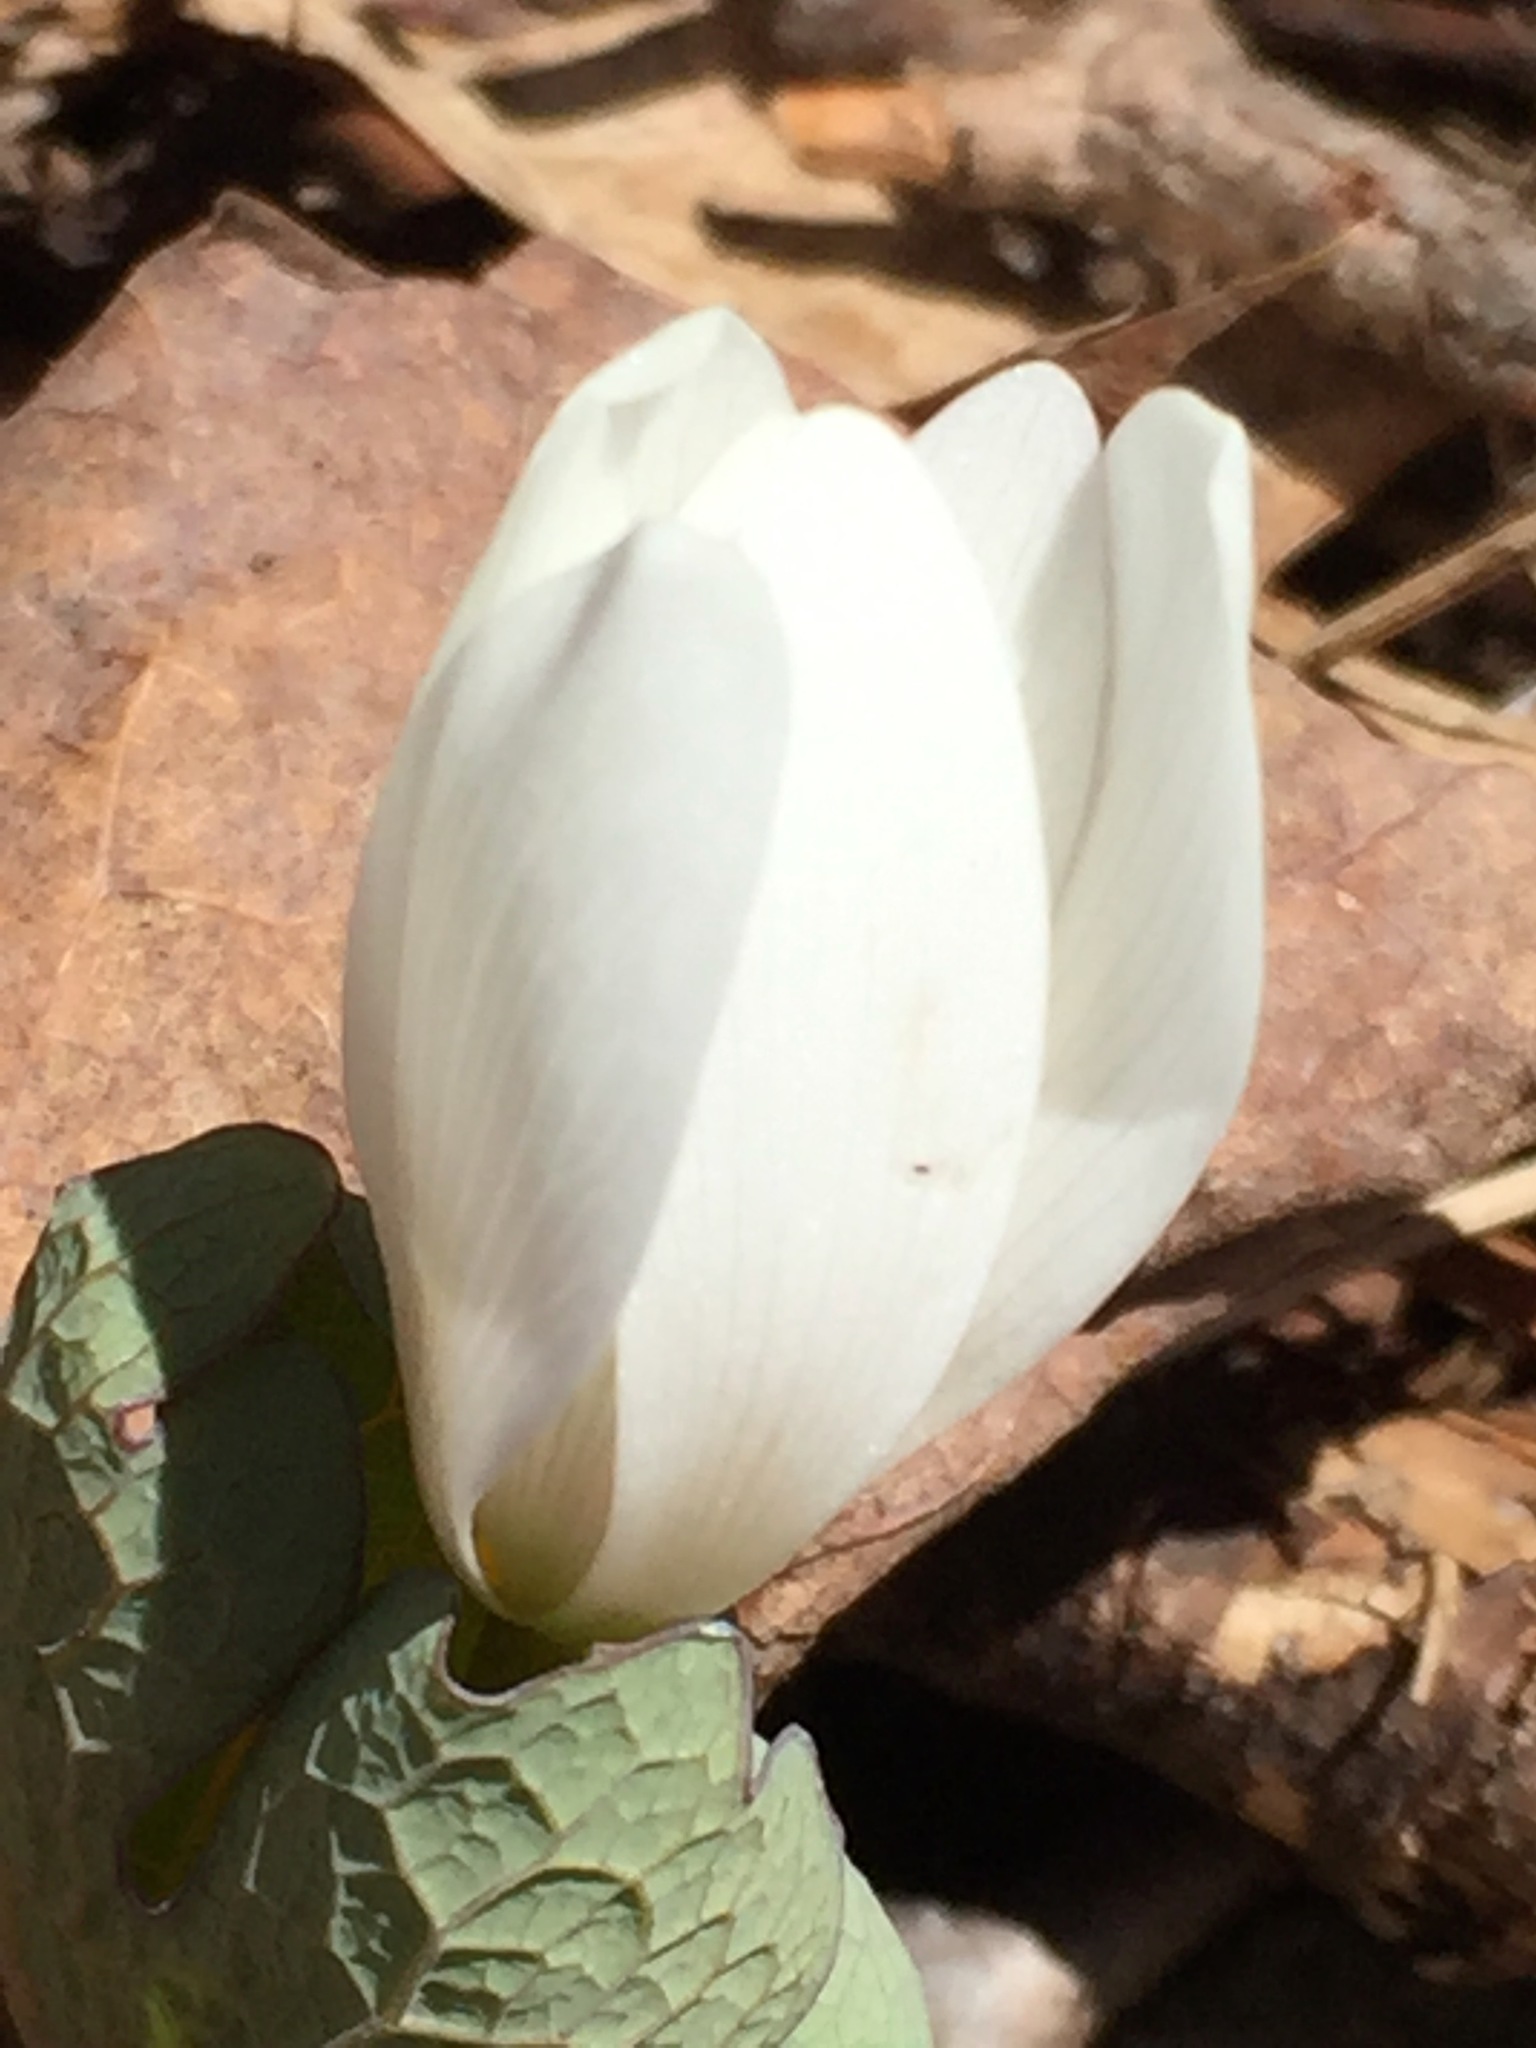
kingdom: Plantae
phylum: Tracheophyta
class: Magnoliopsida
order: Ranunculales
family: Papaveraceae
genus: Sanguinaria
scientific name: Sanguinaria canadensis
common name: Bloodroot
